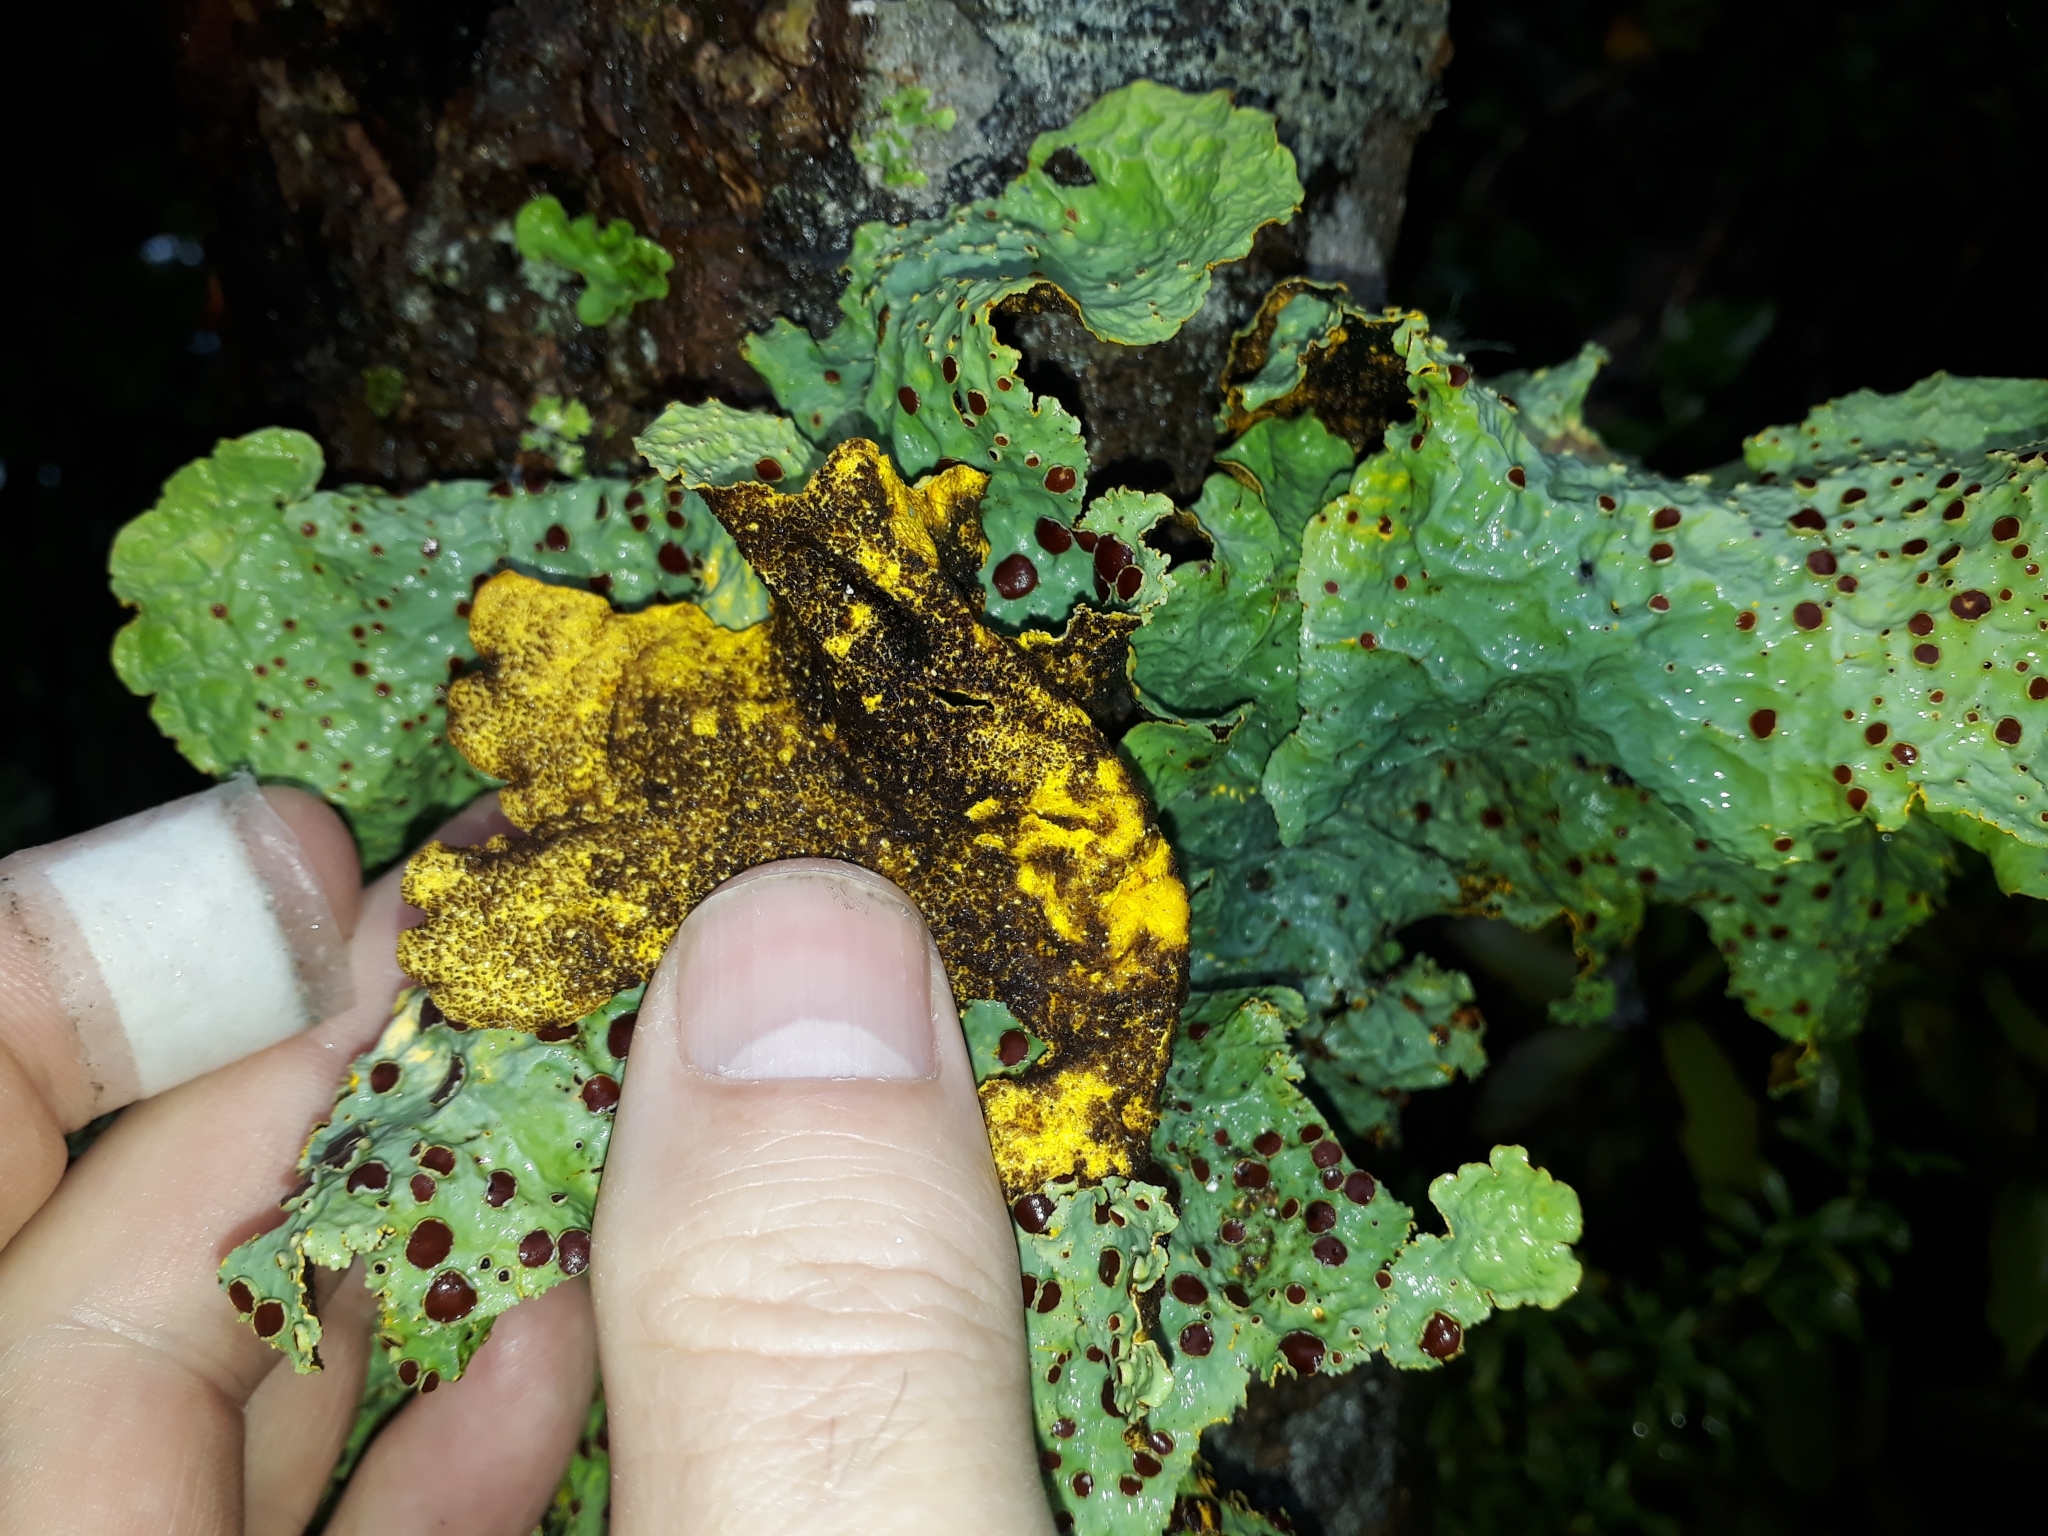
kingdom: Fungi
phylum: Ascomycota
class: Lecanoromycetes
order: Peltigerales
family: Lobariaceae
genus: Yarrumia
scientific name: Yarrumia coronata
